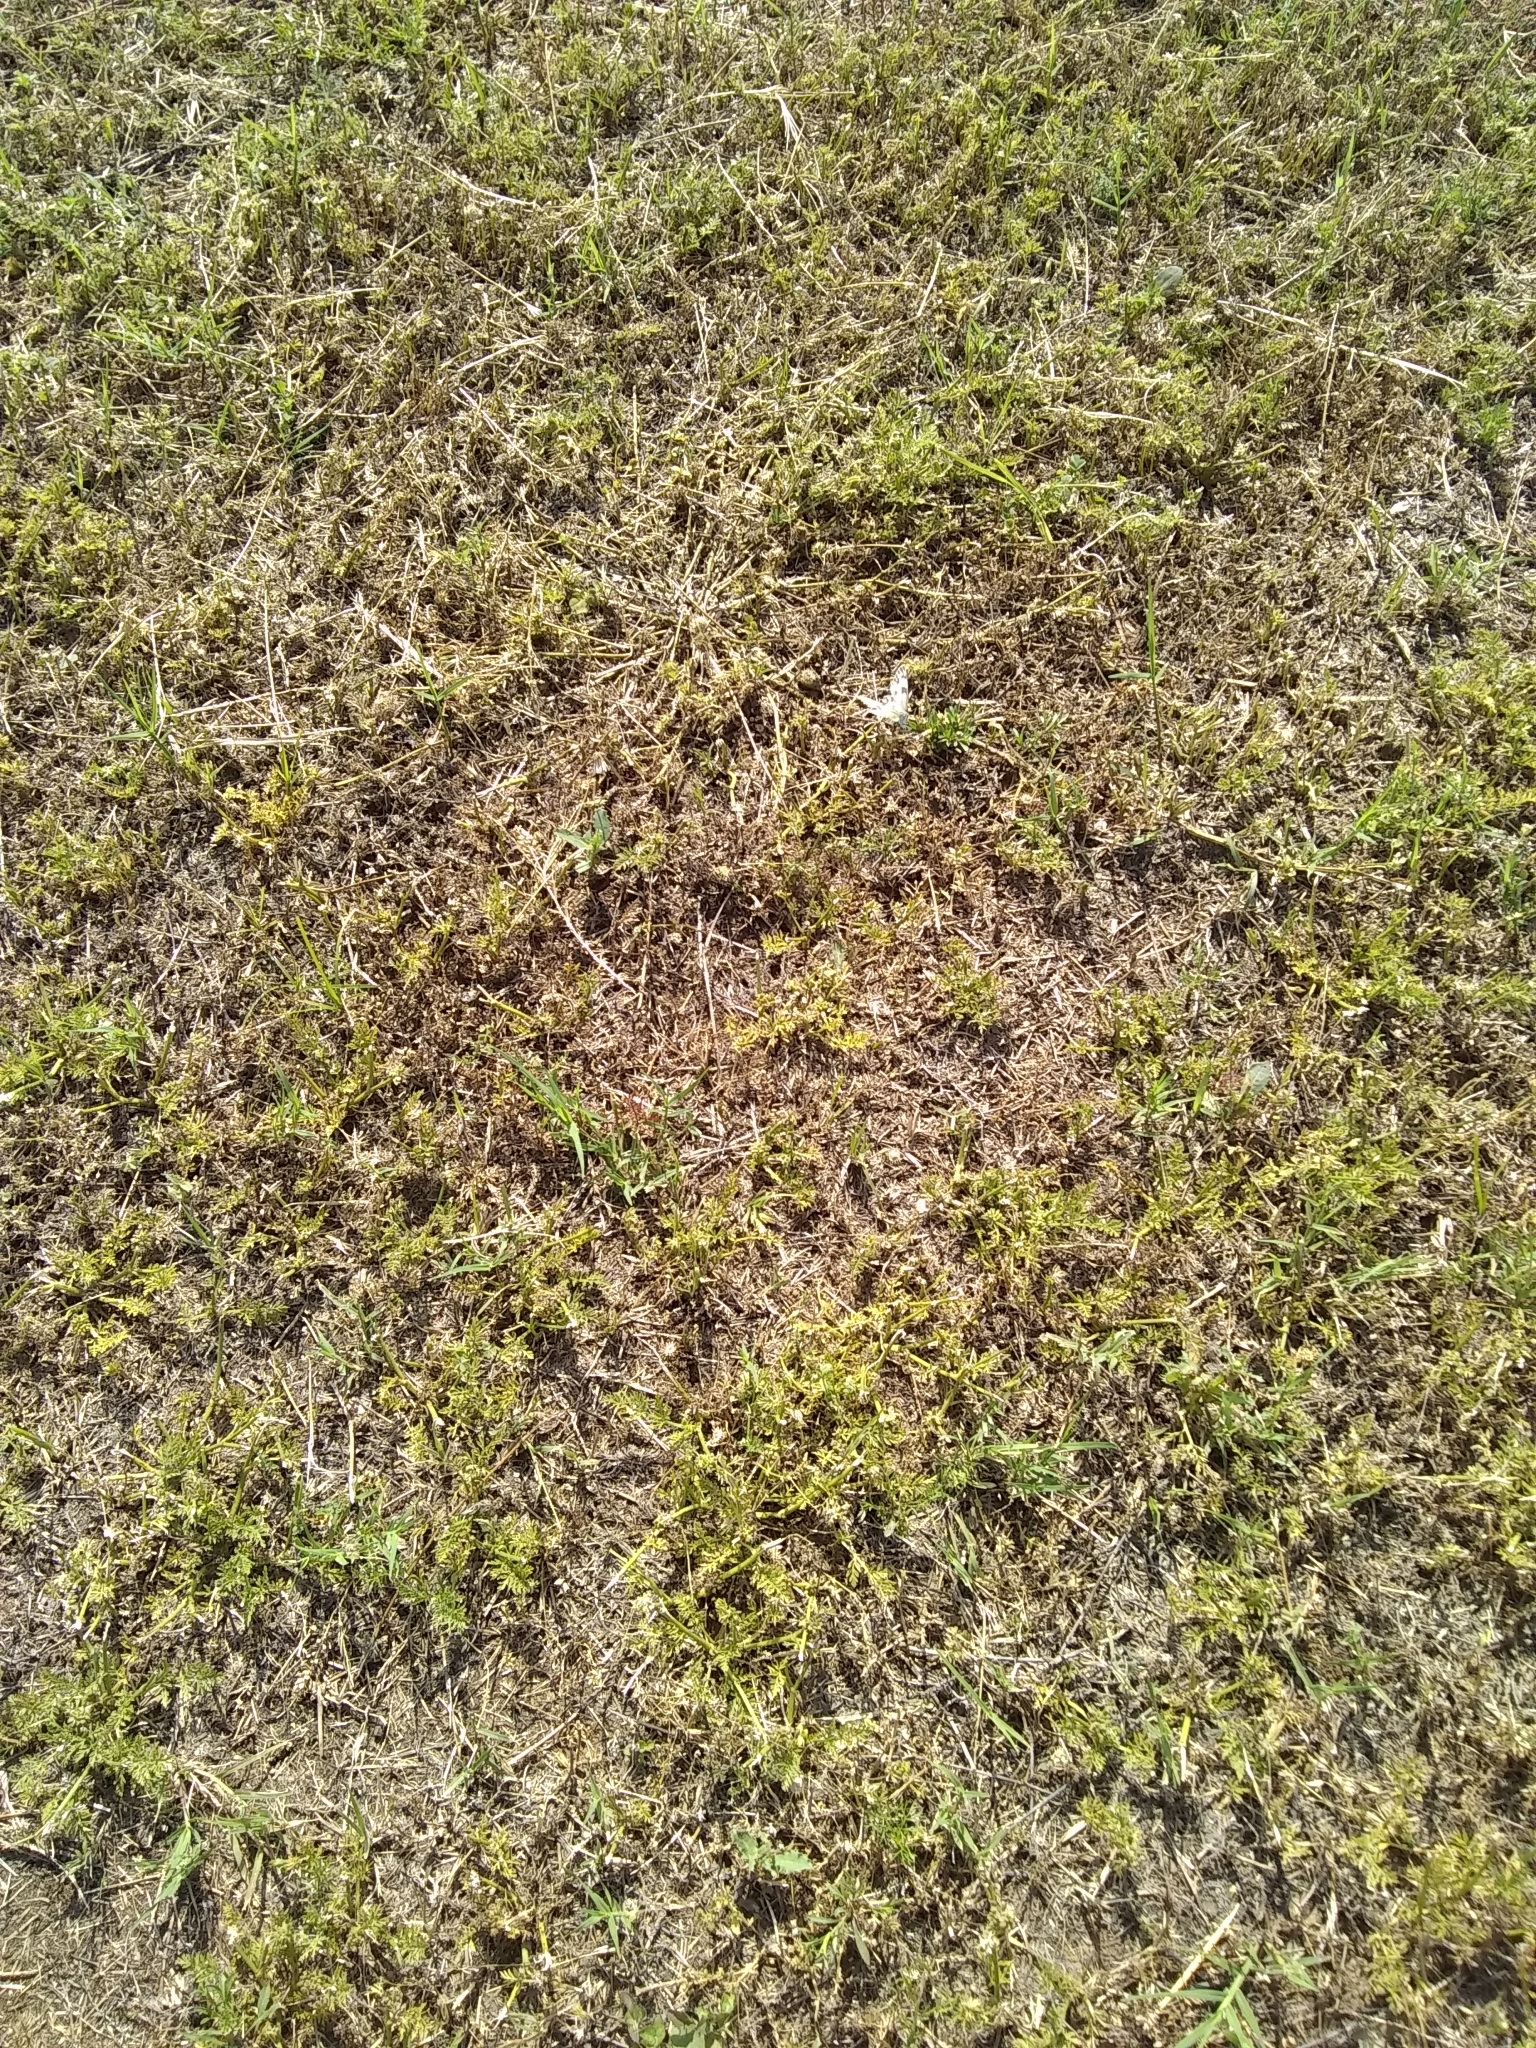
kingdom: Animalia
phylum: Arthropoda
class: Insecta
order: Lepidoptera
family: Pieridae
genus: Pontia
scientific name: Pontia protodice
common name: Checkered white
